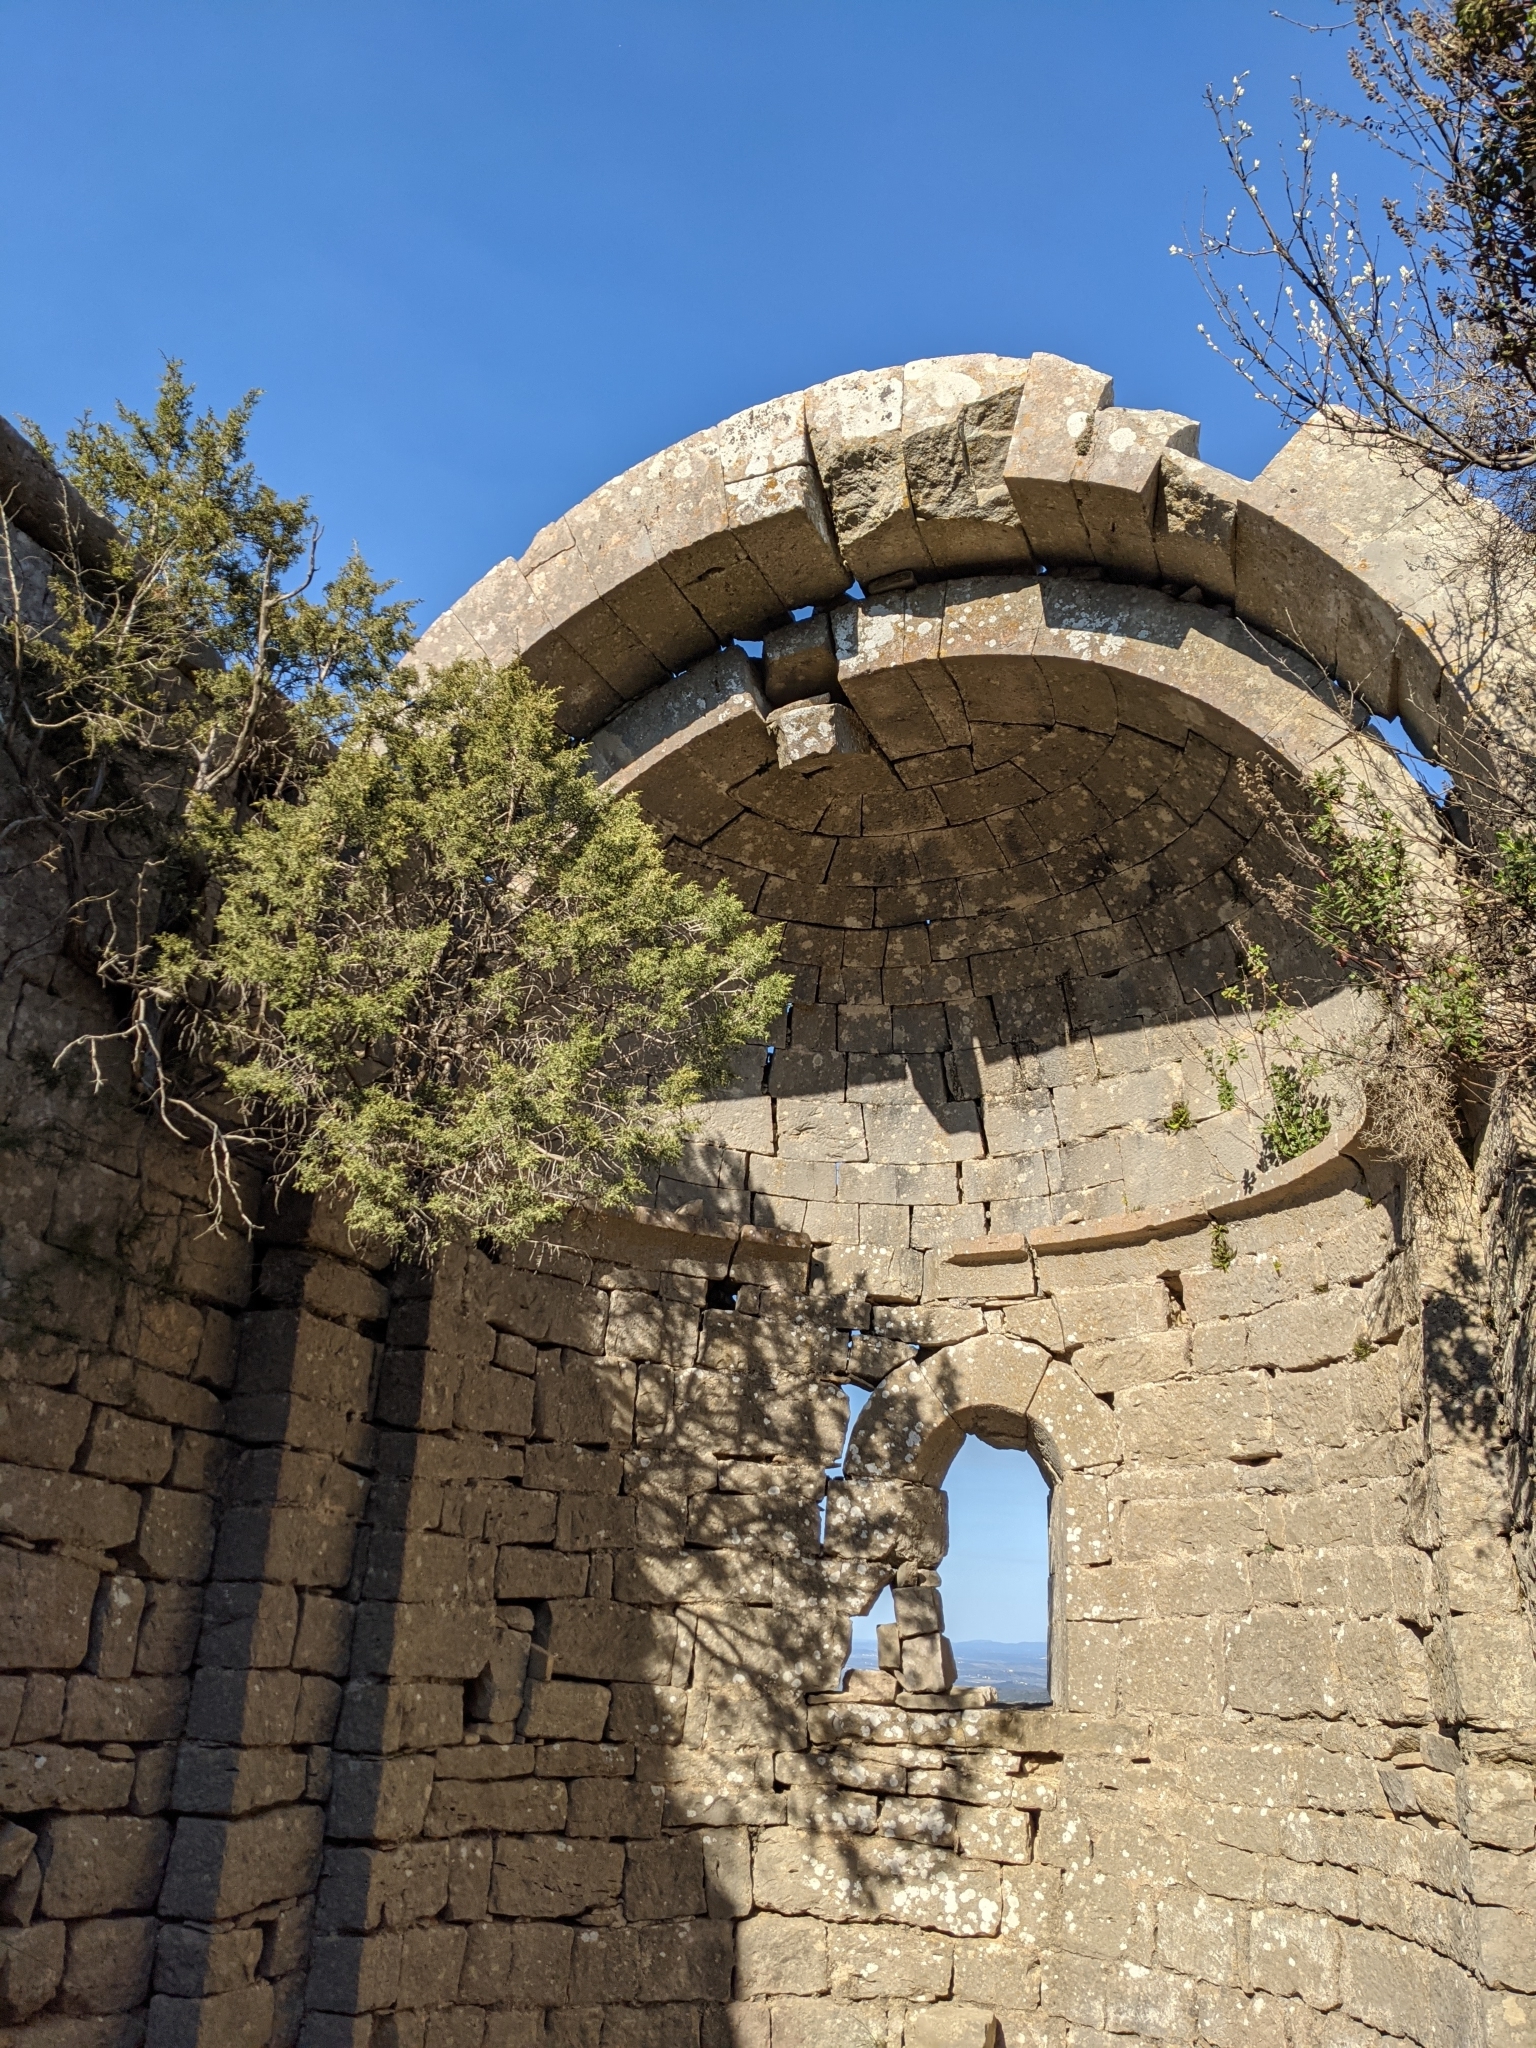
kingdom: Plantae
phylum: Tracheophyta
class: Pinopsida
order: Pinales
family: Cupressaceae
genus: Juniperus
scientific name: Juniperus phoenicea
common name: Phoenician juniper
